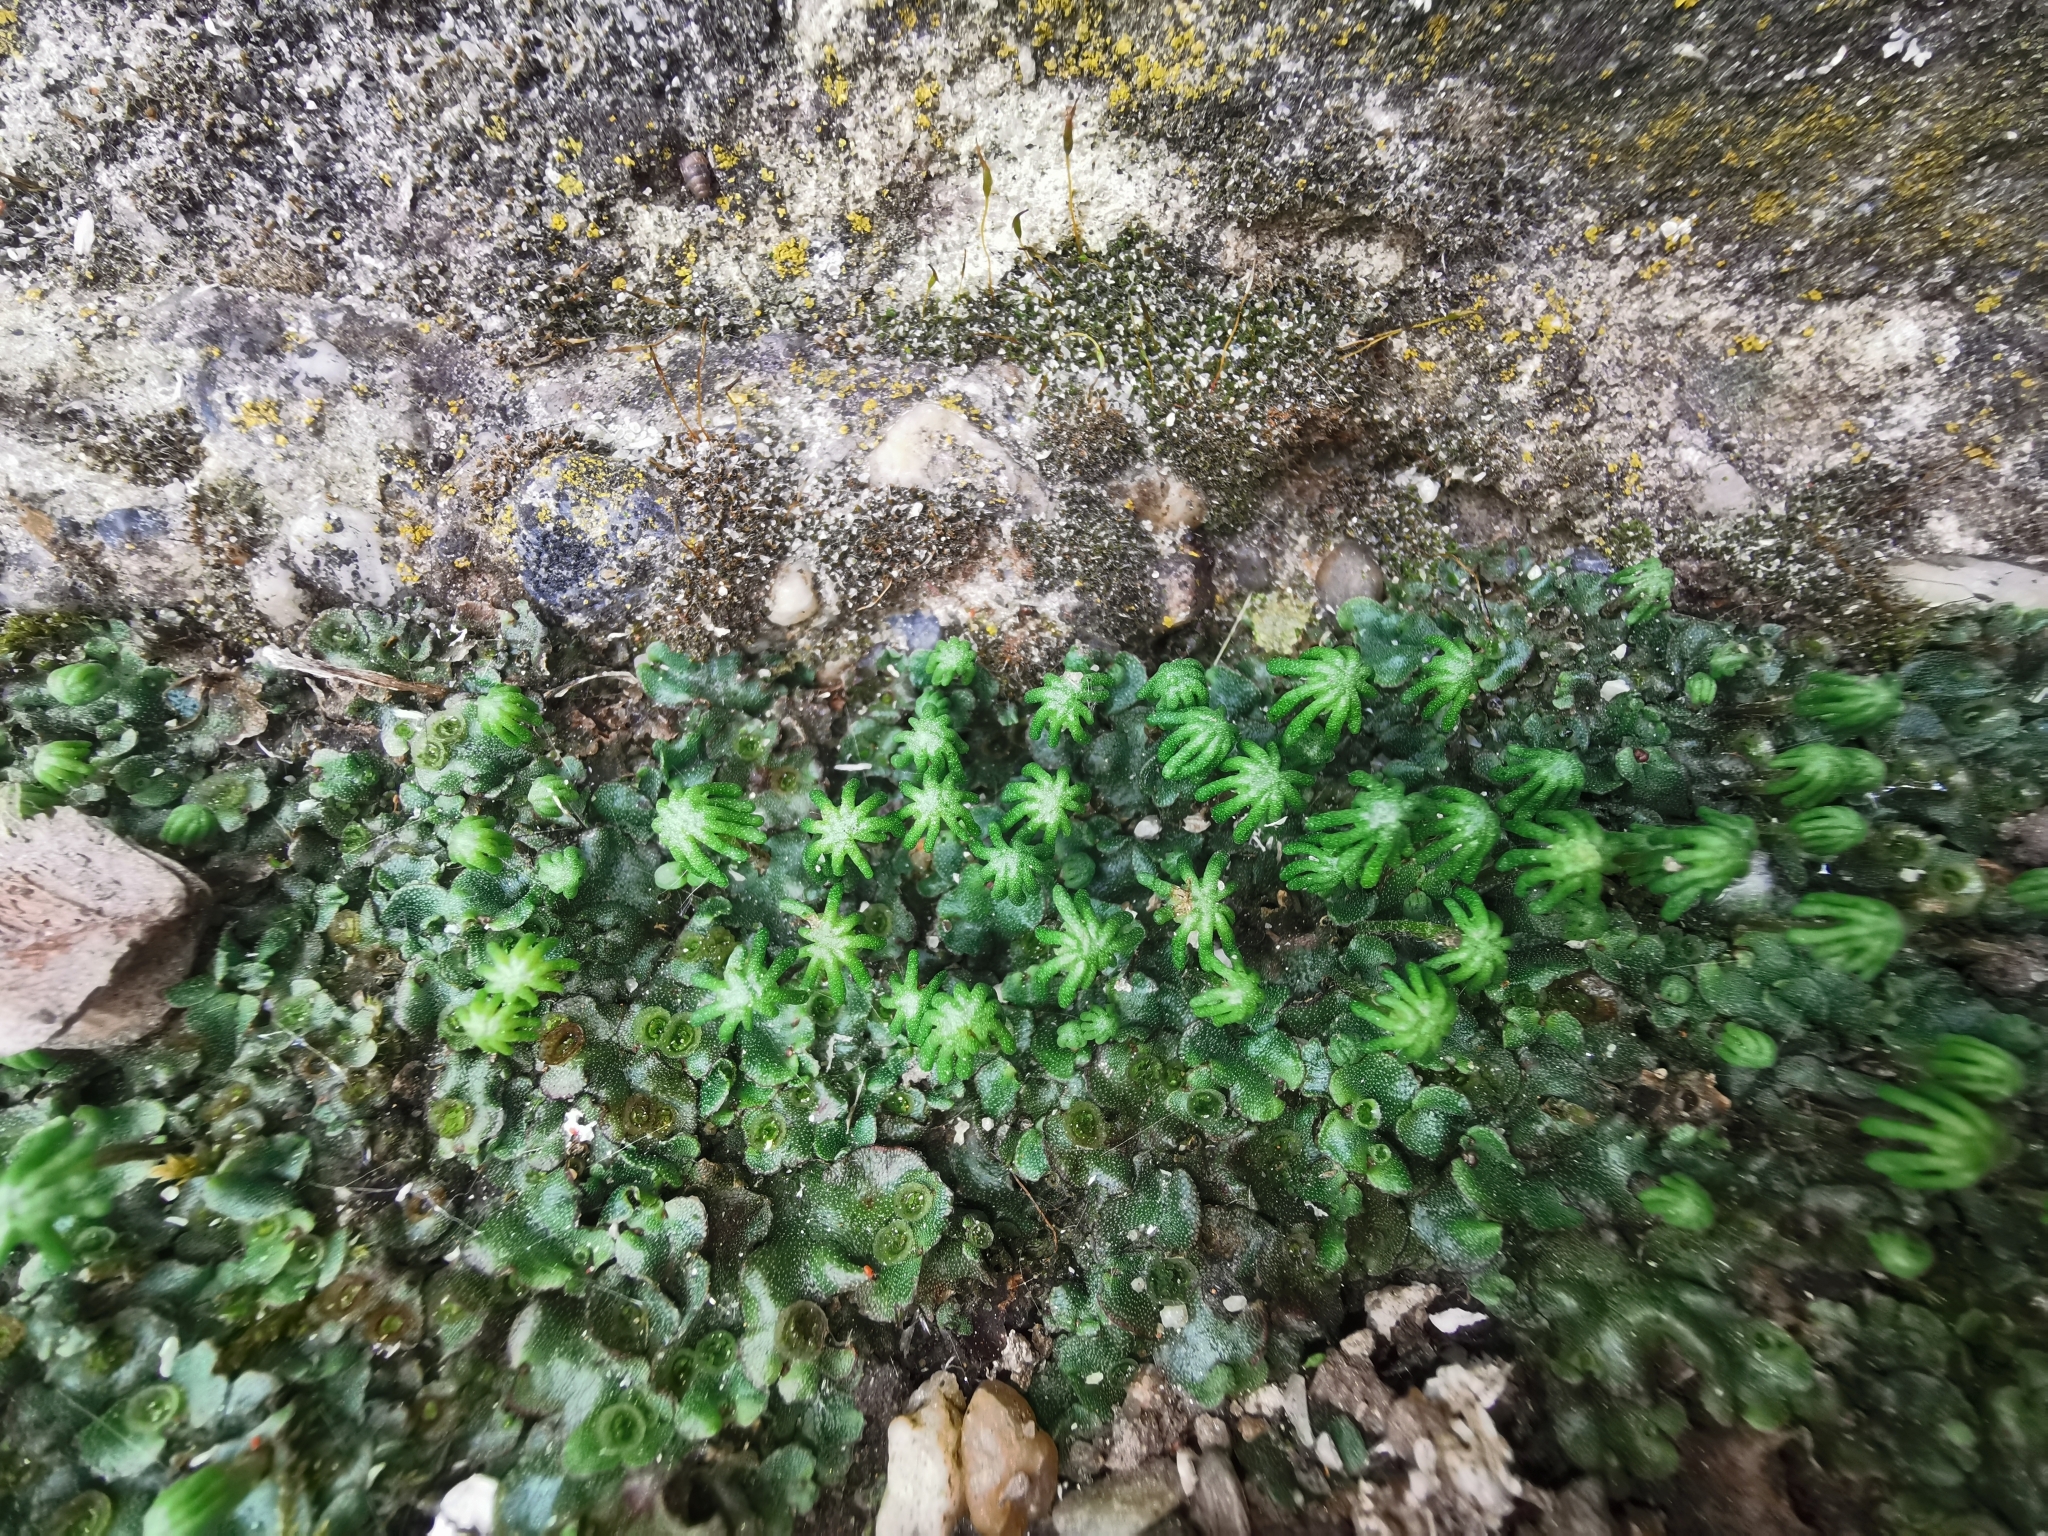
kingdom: Plantae
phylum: Marchantiophyta
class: Marchantiopsida
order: Marchantiales
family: Marchantiaceae
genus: Marchantia
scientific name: Marchantia polymorpha
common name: Common liverwort
